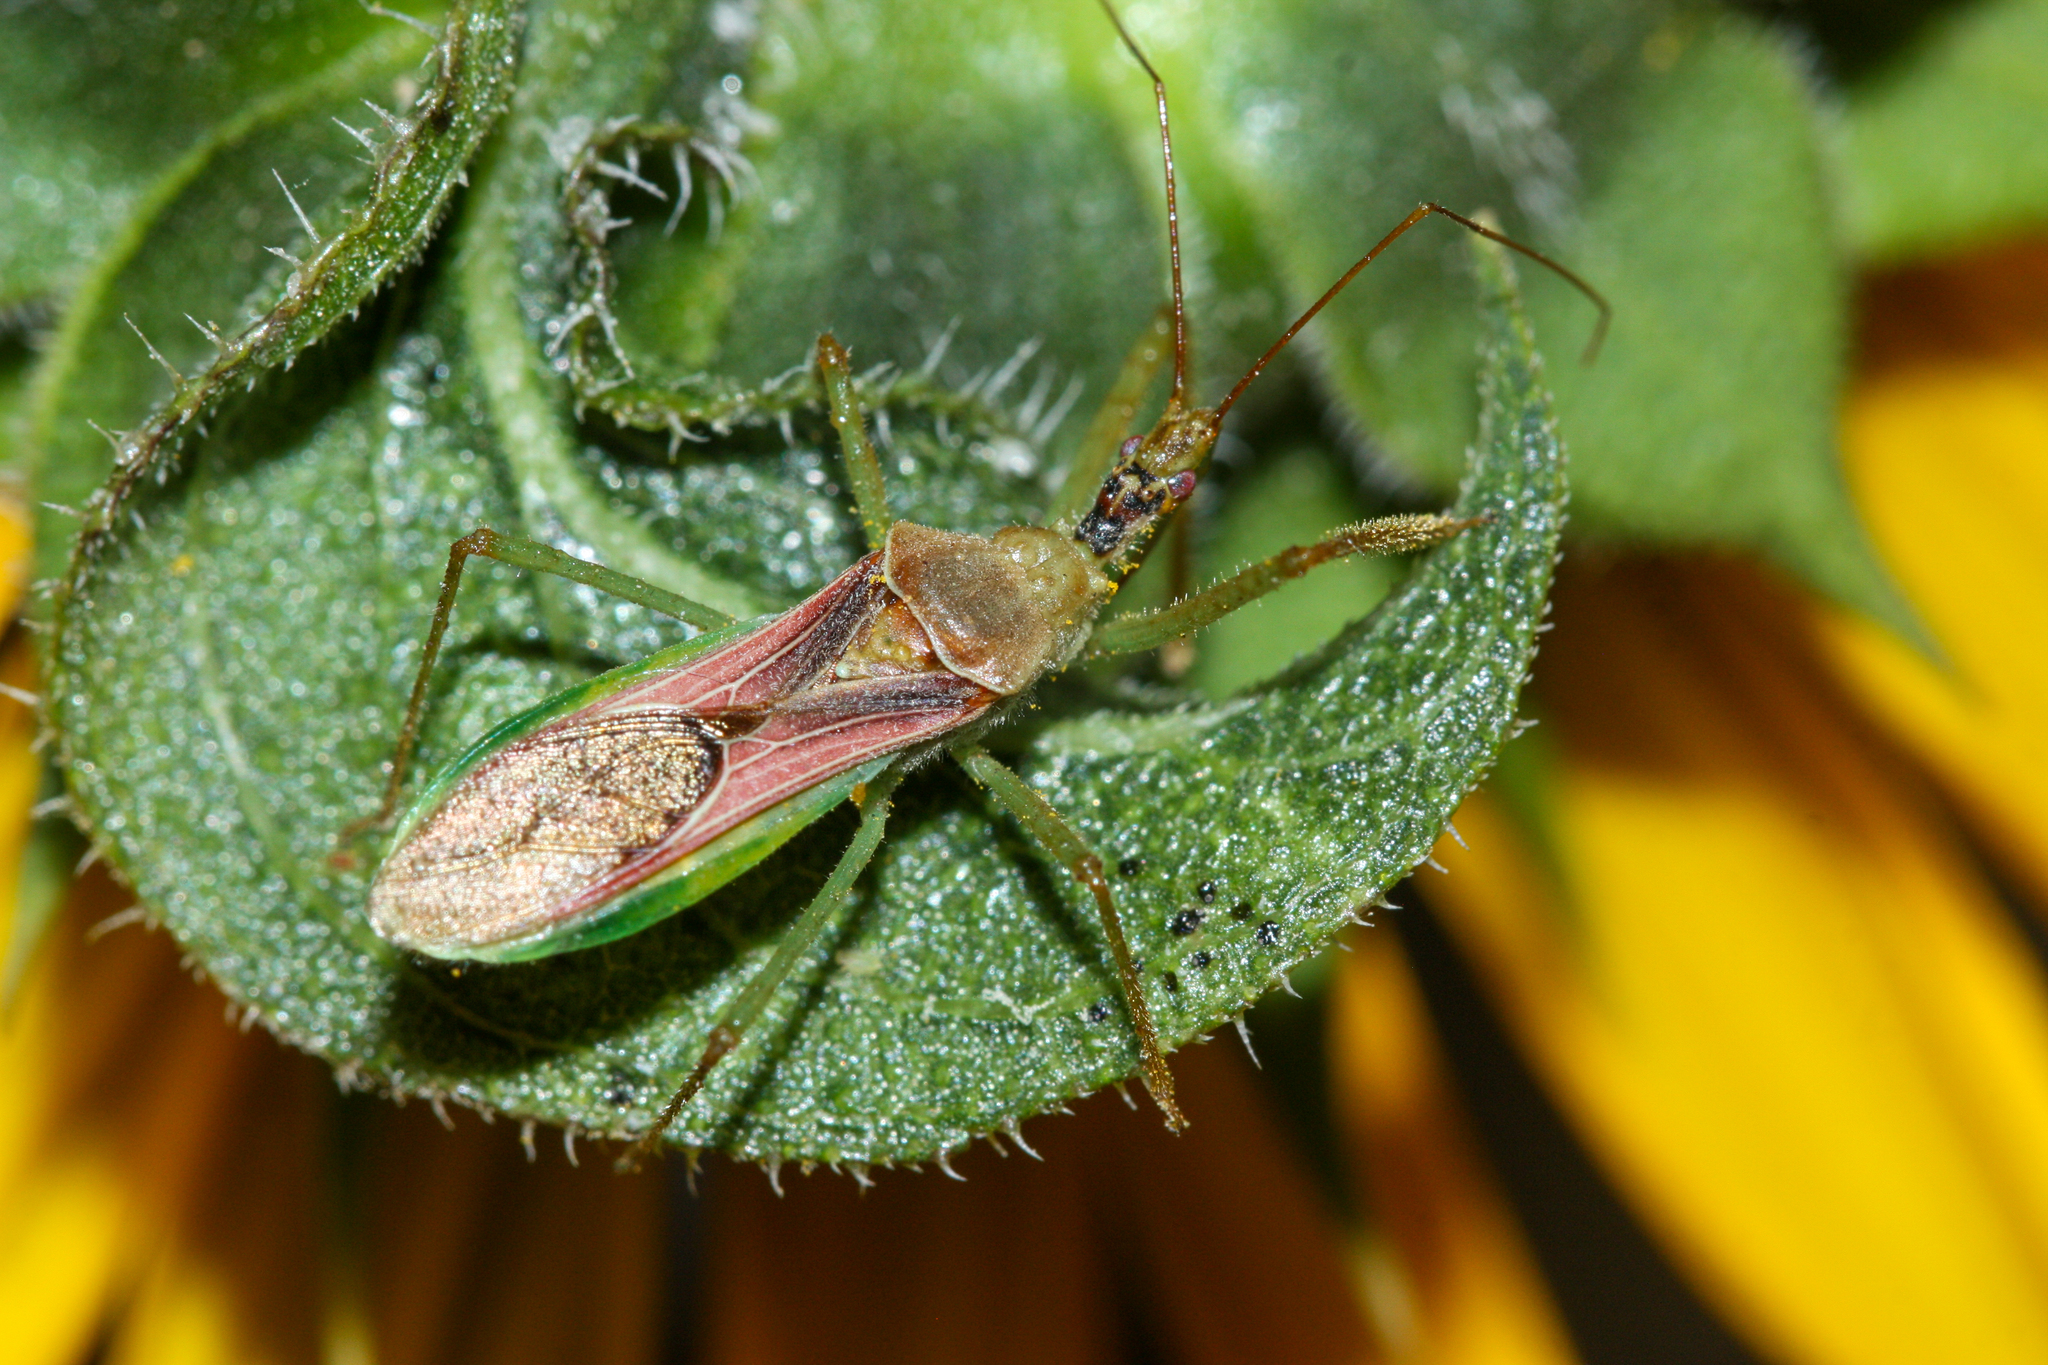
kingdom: Animalia
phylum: Arthropoda
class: Insecta
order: Hemiptera
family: Reduviidae
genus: Zelus
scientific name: Zelus renardii
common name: Assassin bug
